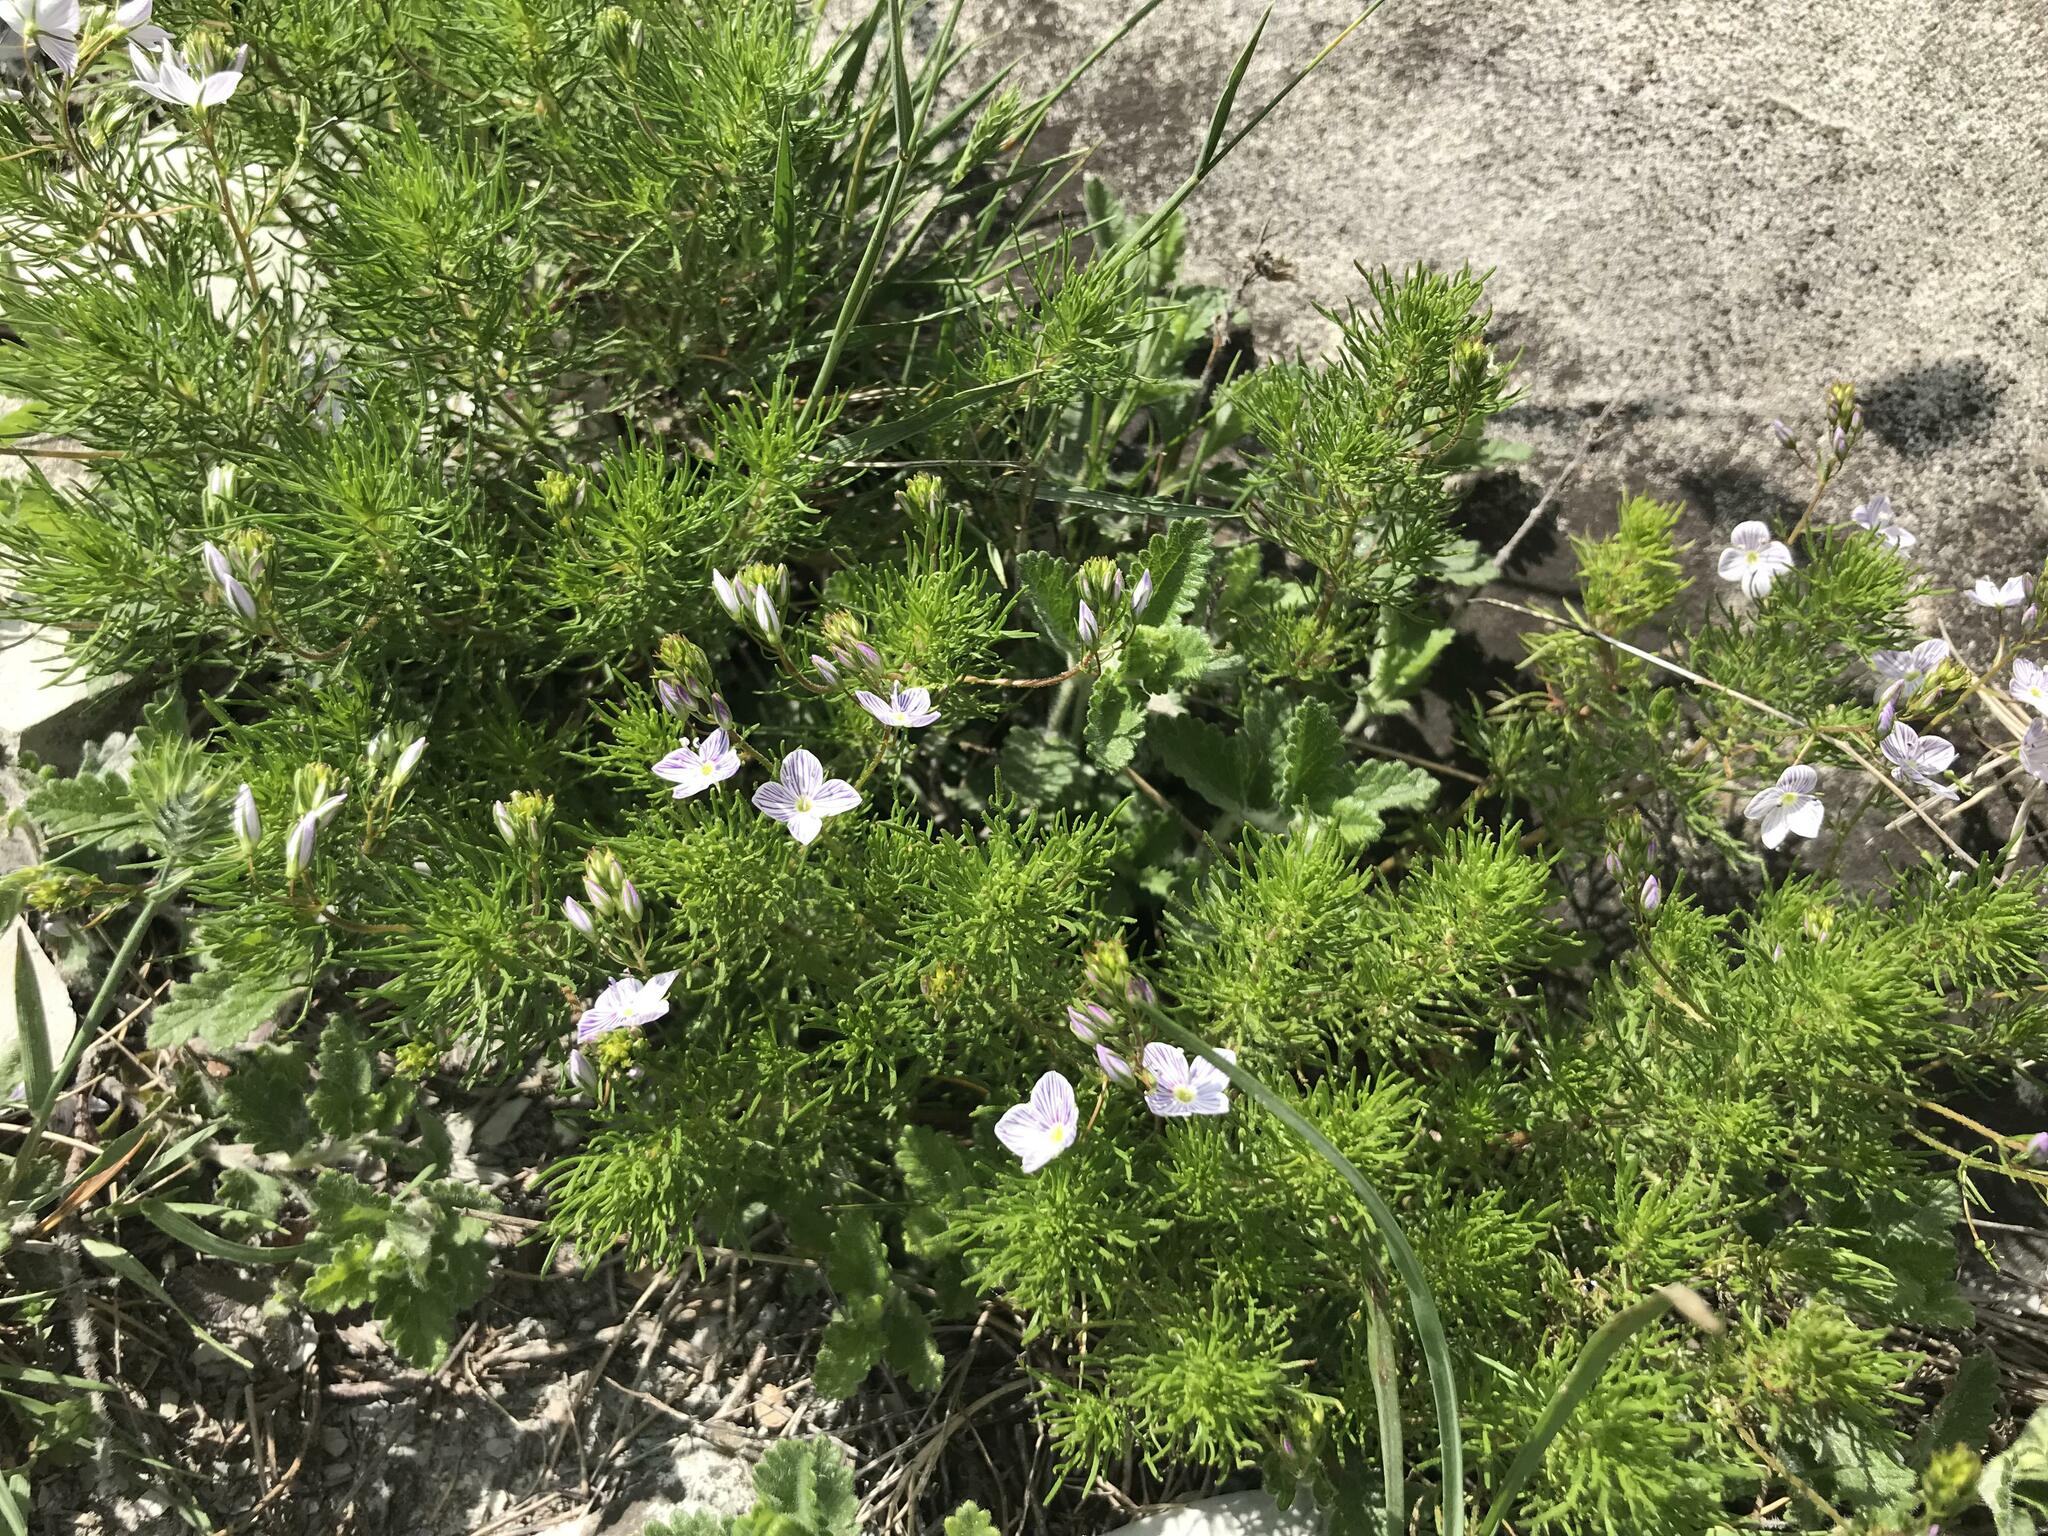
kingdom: Plantae
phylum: Tracheophyta
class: Magnoliopsida
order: Lamiales
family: Plantaginaceae
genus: Veronica
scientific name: Veronica filifolia
